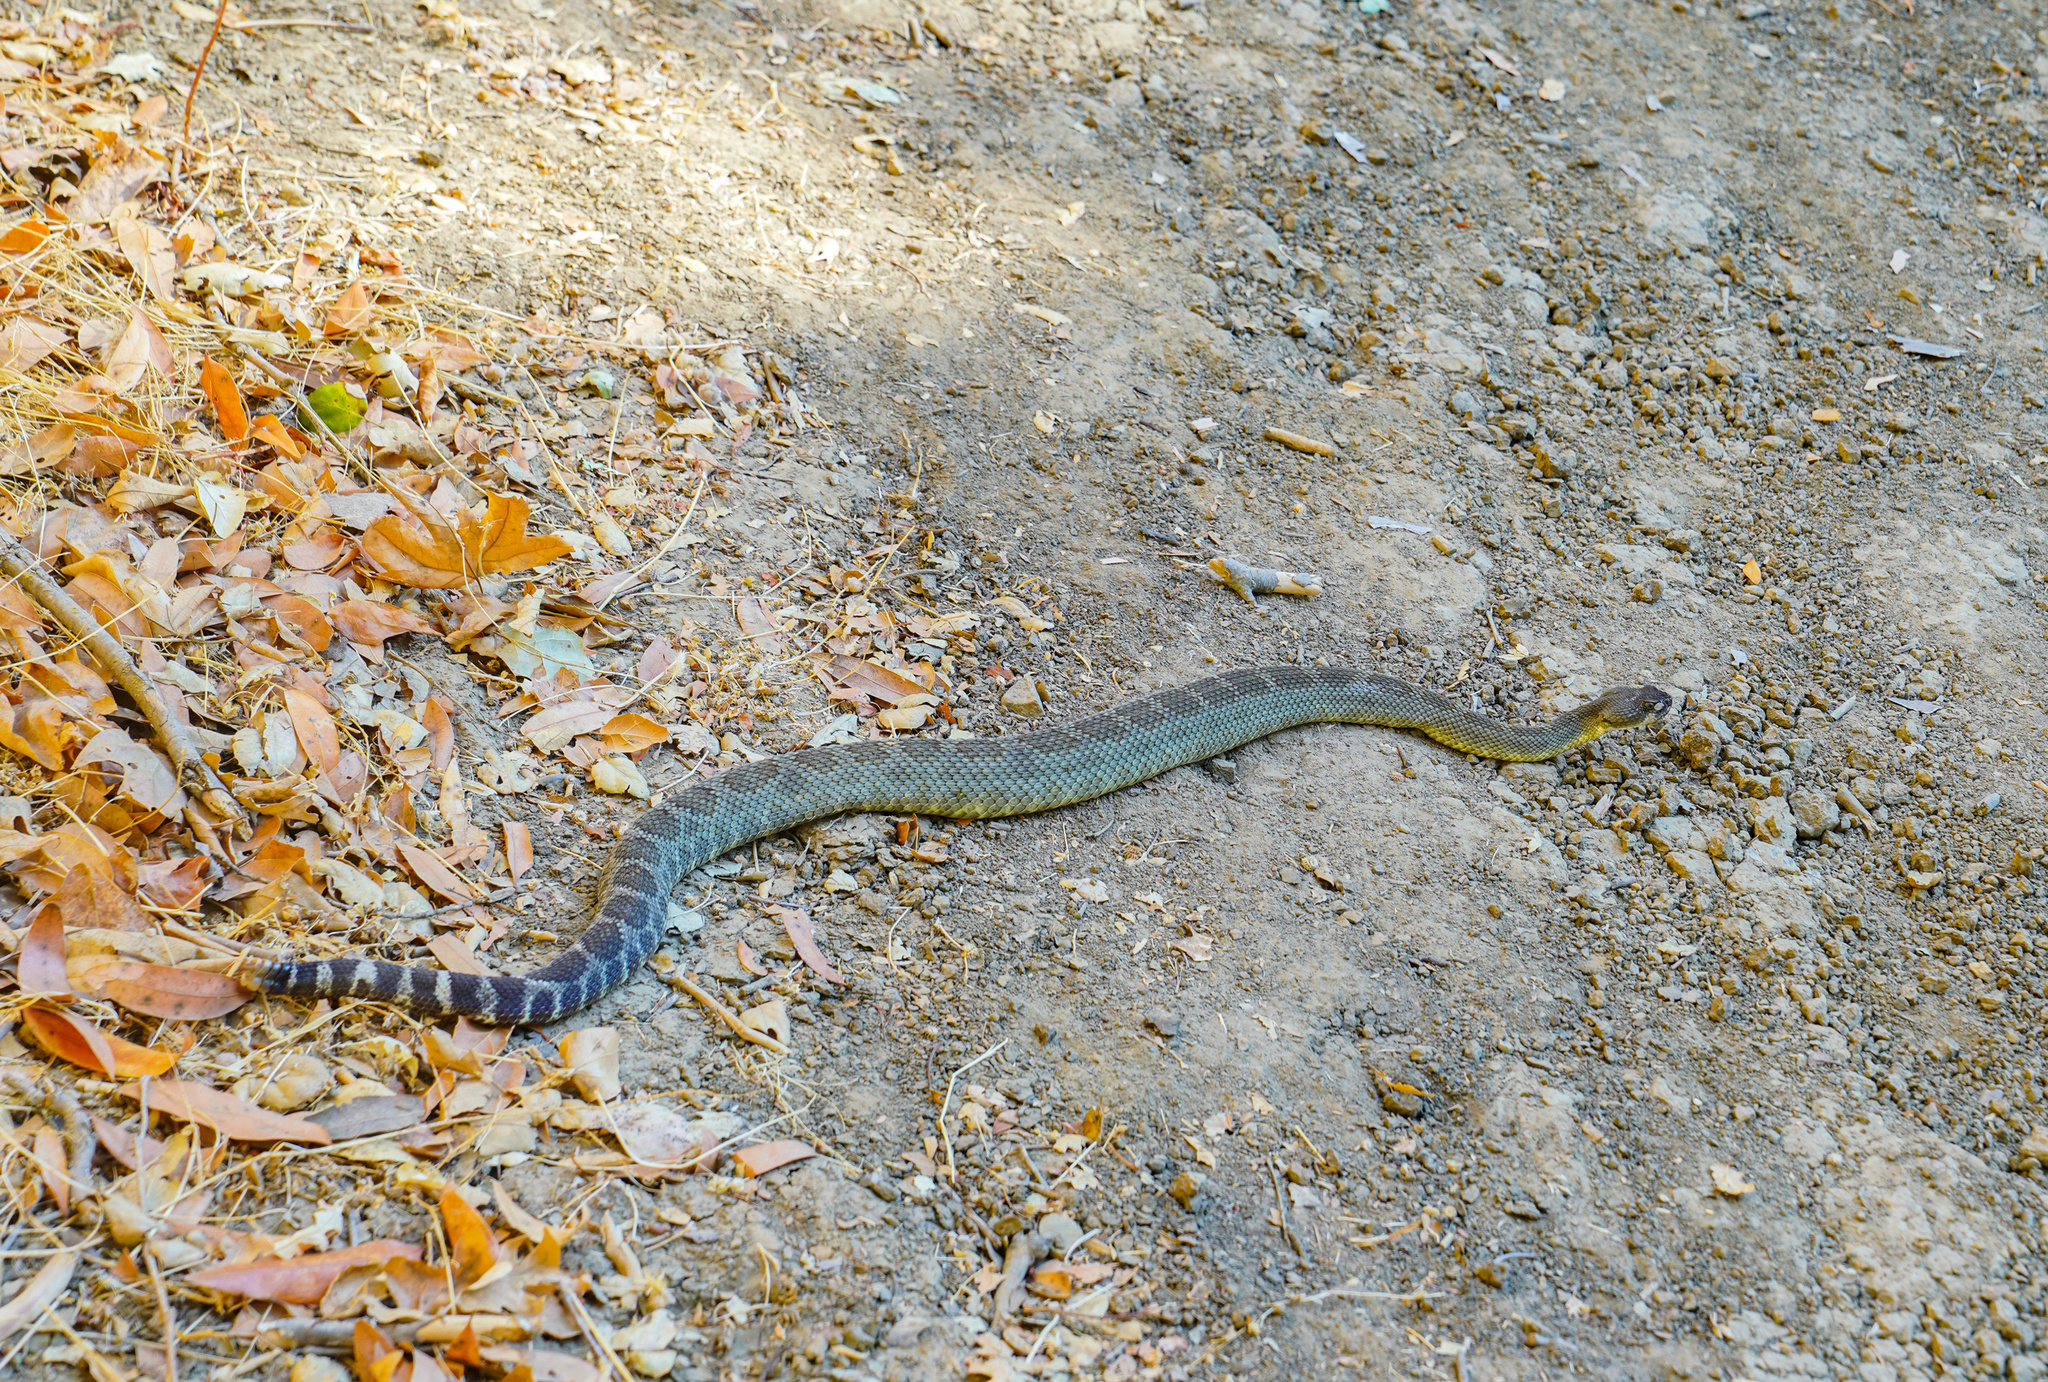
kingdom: Animalia
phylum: Chordata
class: Squamata
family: Viperidae
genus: Crotalus
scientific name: Crotalus oreganus
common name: Abyssus
